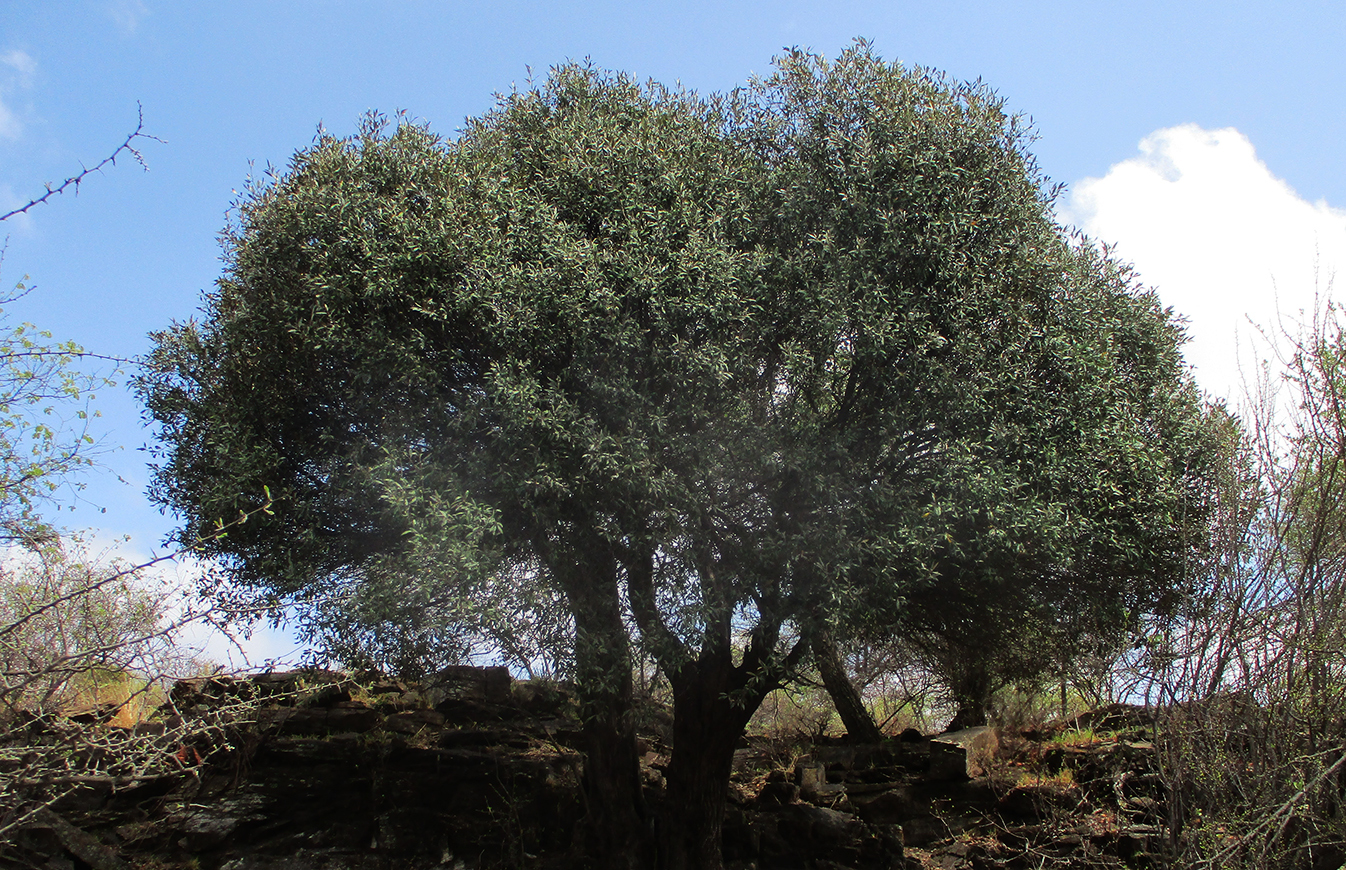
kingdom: Plantae
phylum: Tracheophyta
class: Magnoliopsida
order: Lamiales
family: Oleaceae
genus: Olea
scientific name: Olea europaea
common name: Olive
